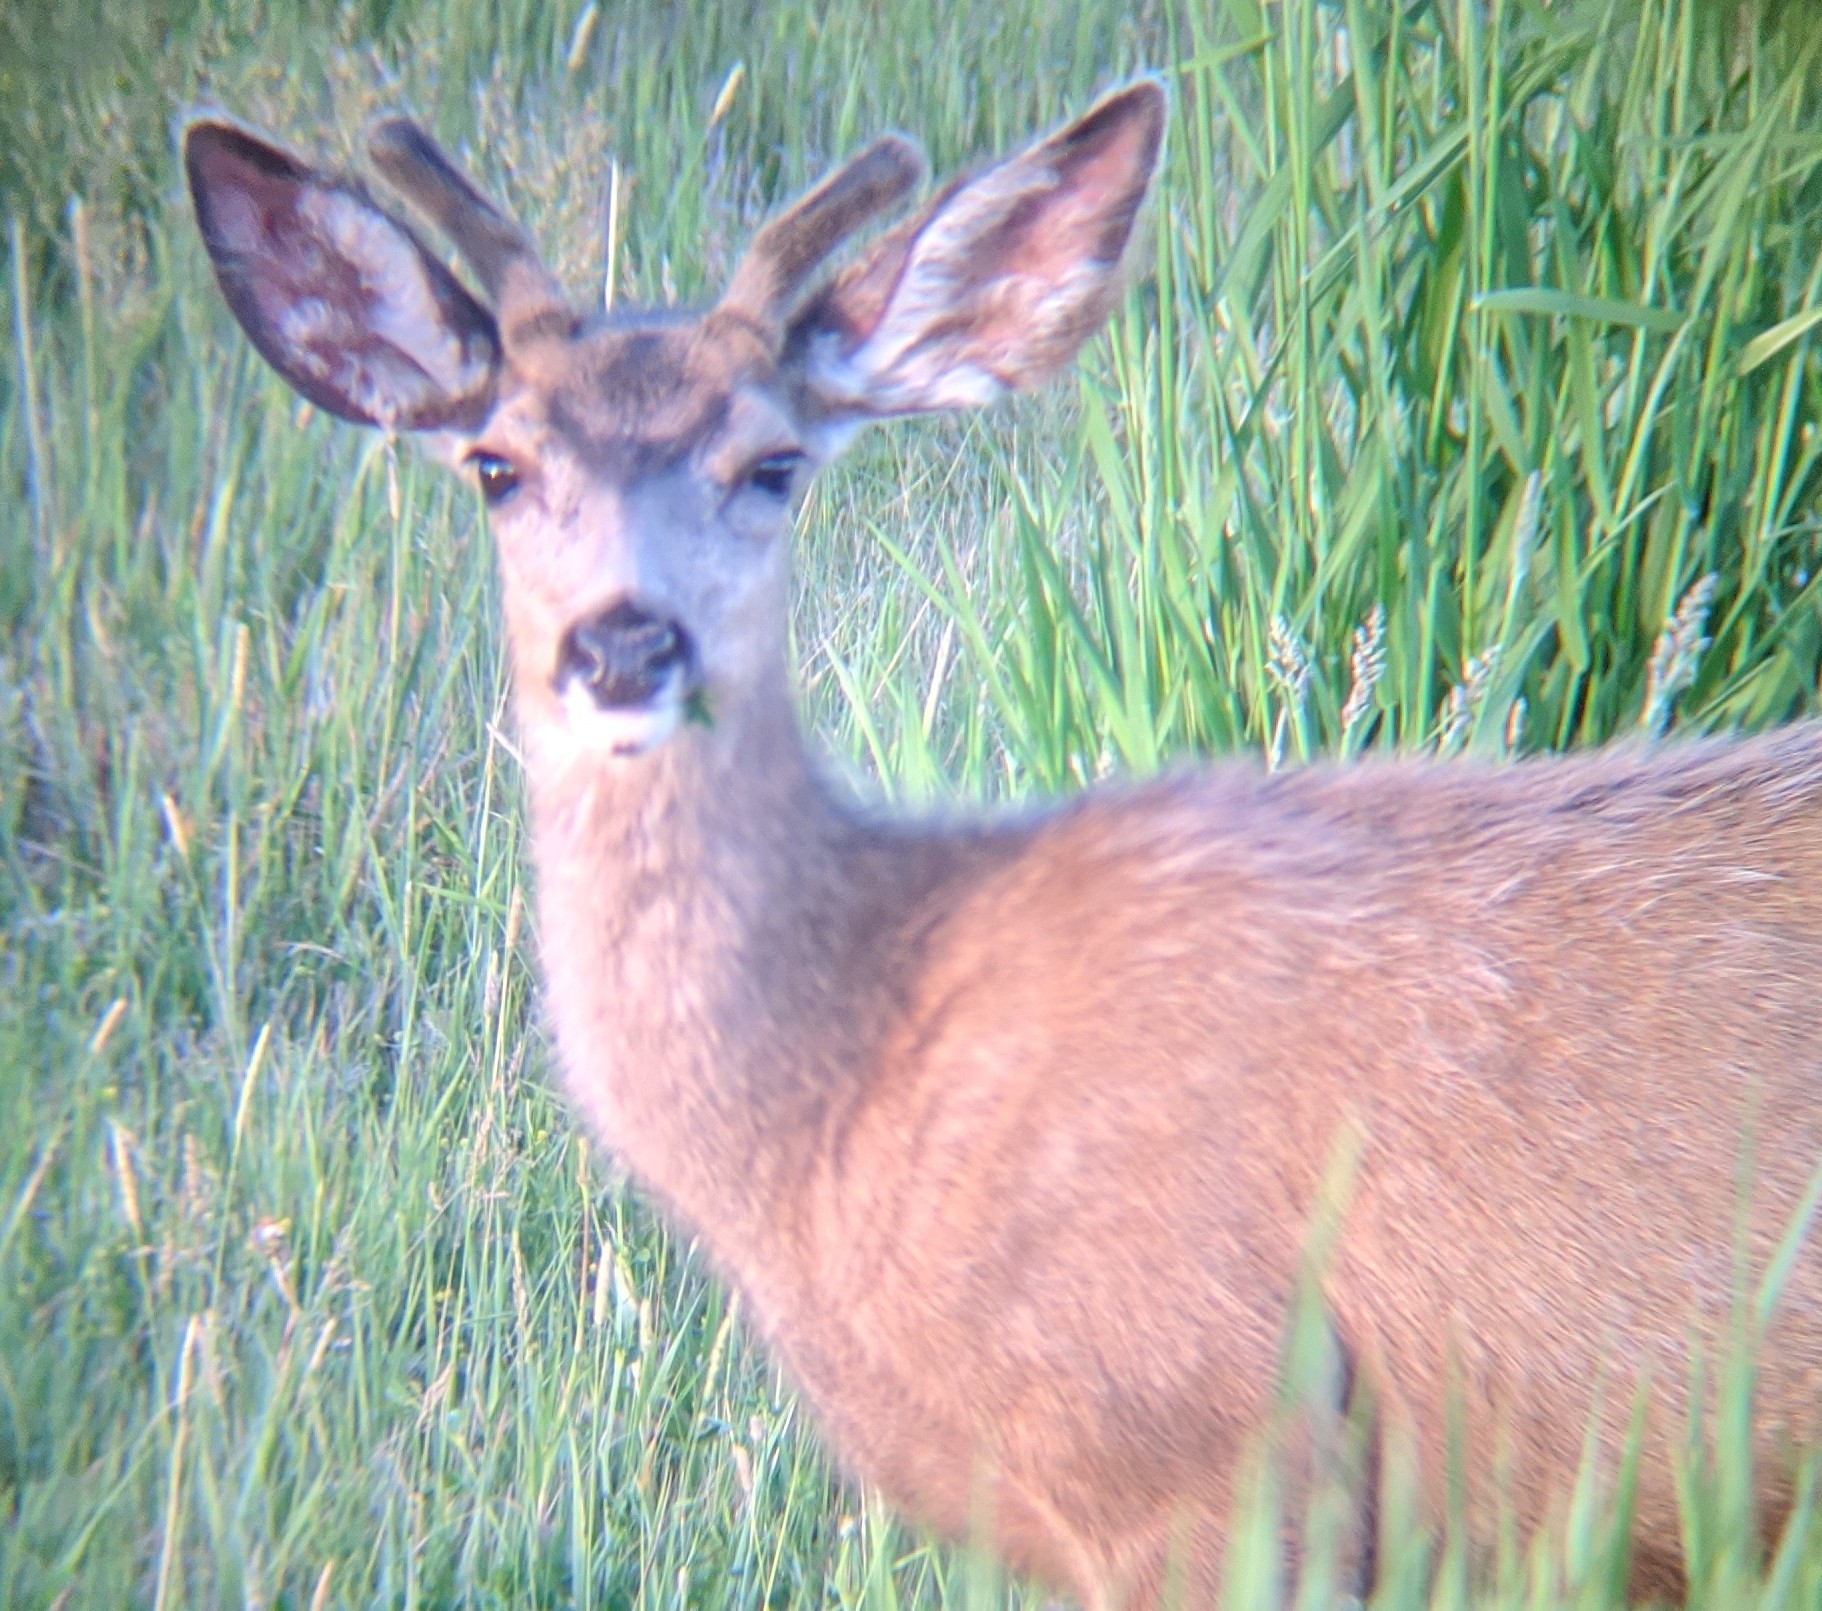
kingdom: Animalia
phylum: Chordata
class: Mammalia
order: Artiodactyla
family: Cervidae
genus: Odocoileus
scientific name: Odocoileus hemionus
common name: Mule deer
